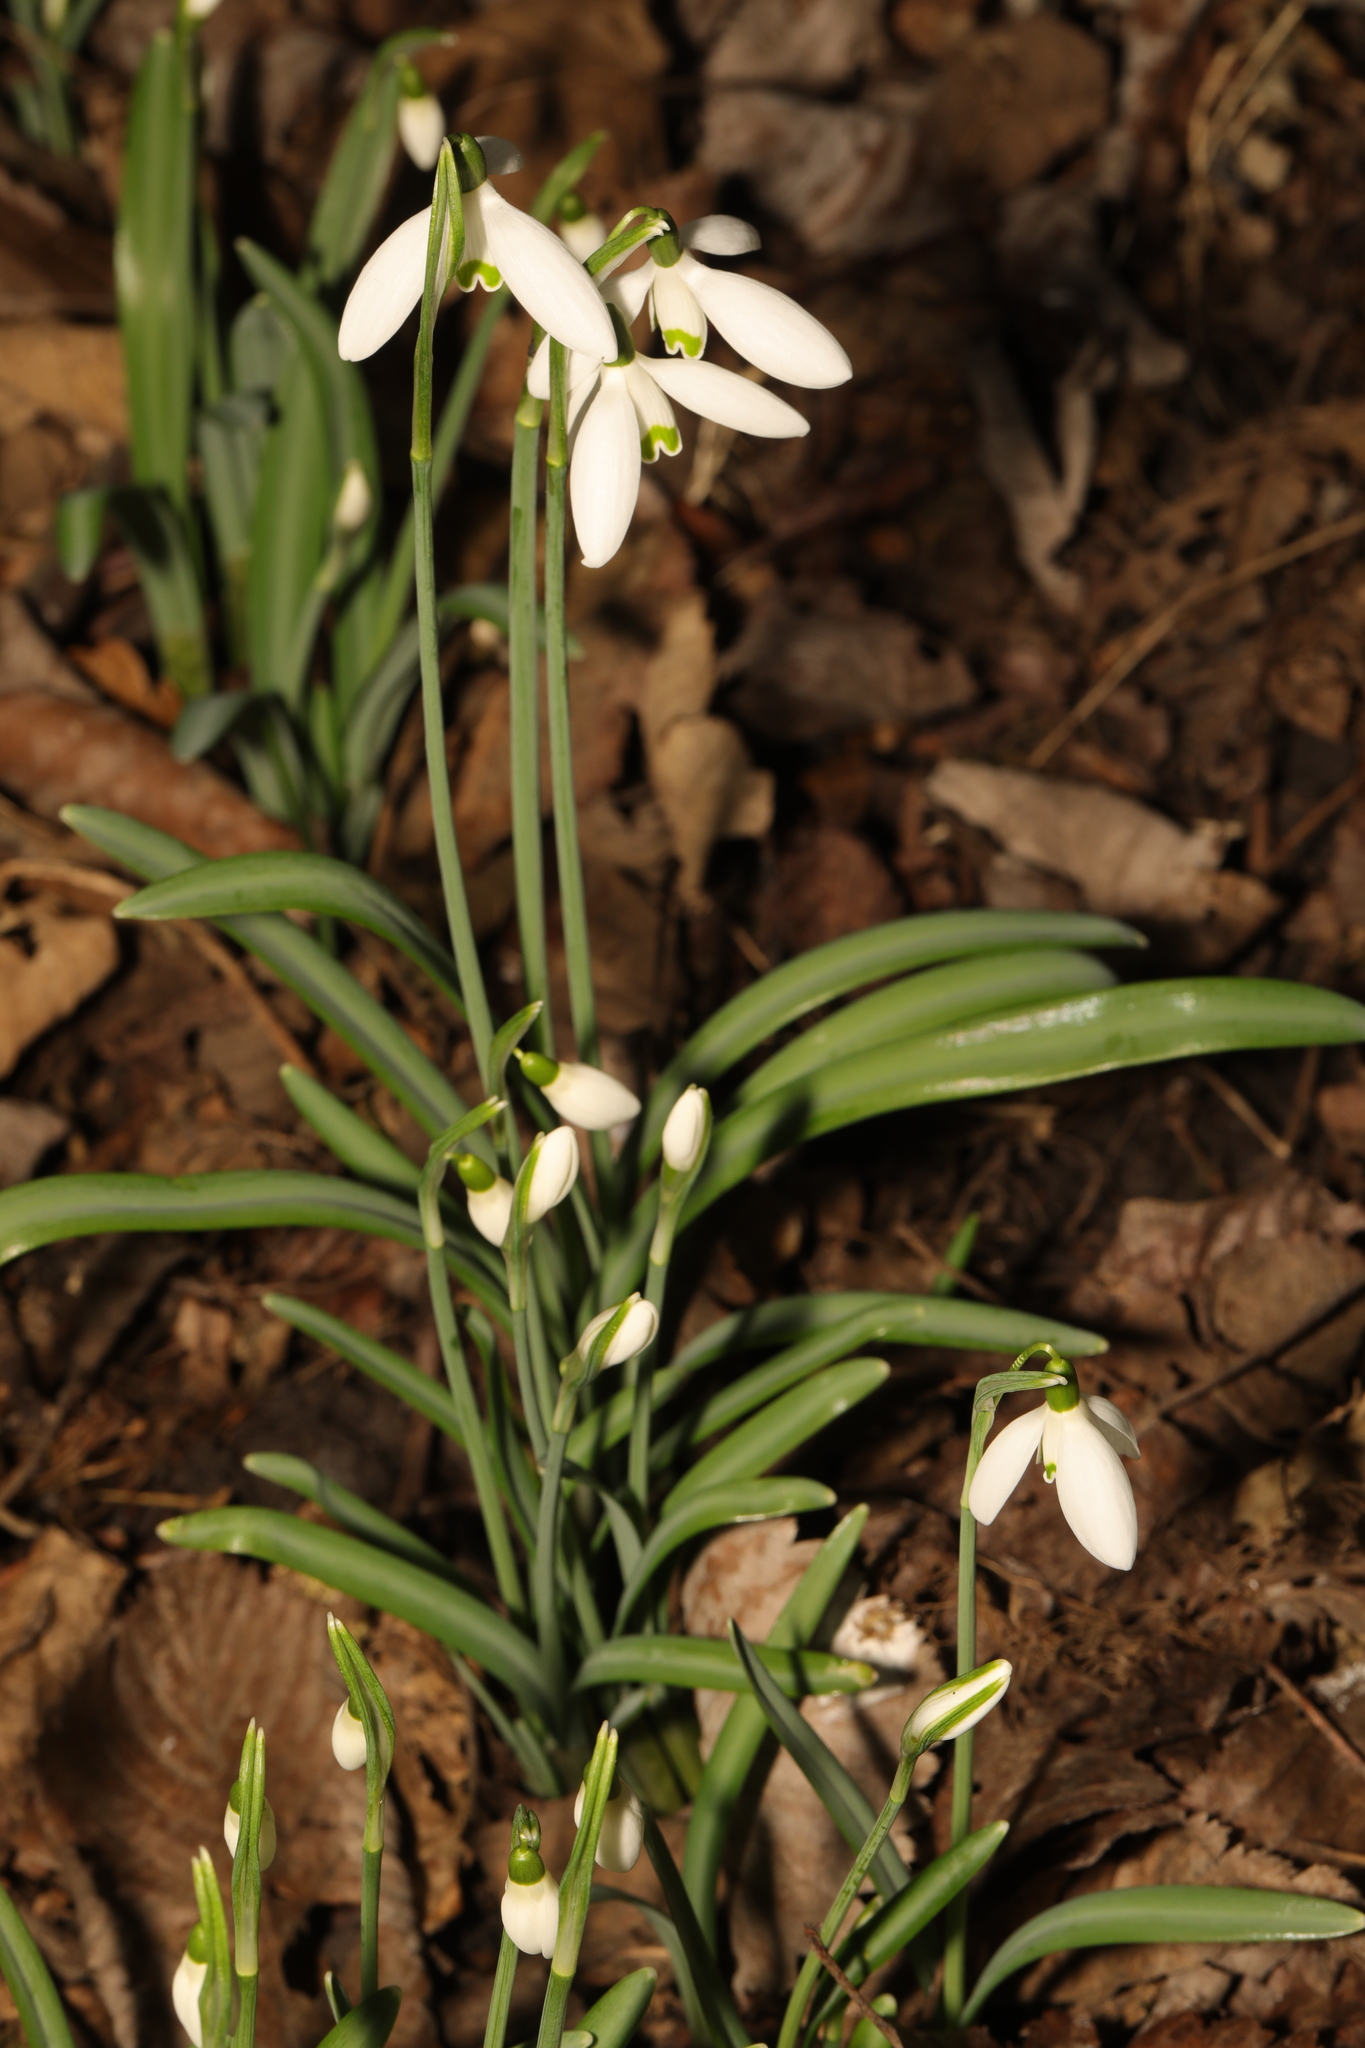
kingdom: Plantae
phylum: Tracheophyta
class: Liliopsida
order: Asparagales
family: Amaryllidaceae
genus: Galanthus
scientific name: Galanthus nivalis
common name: Snowdrop
